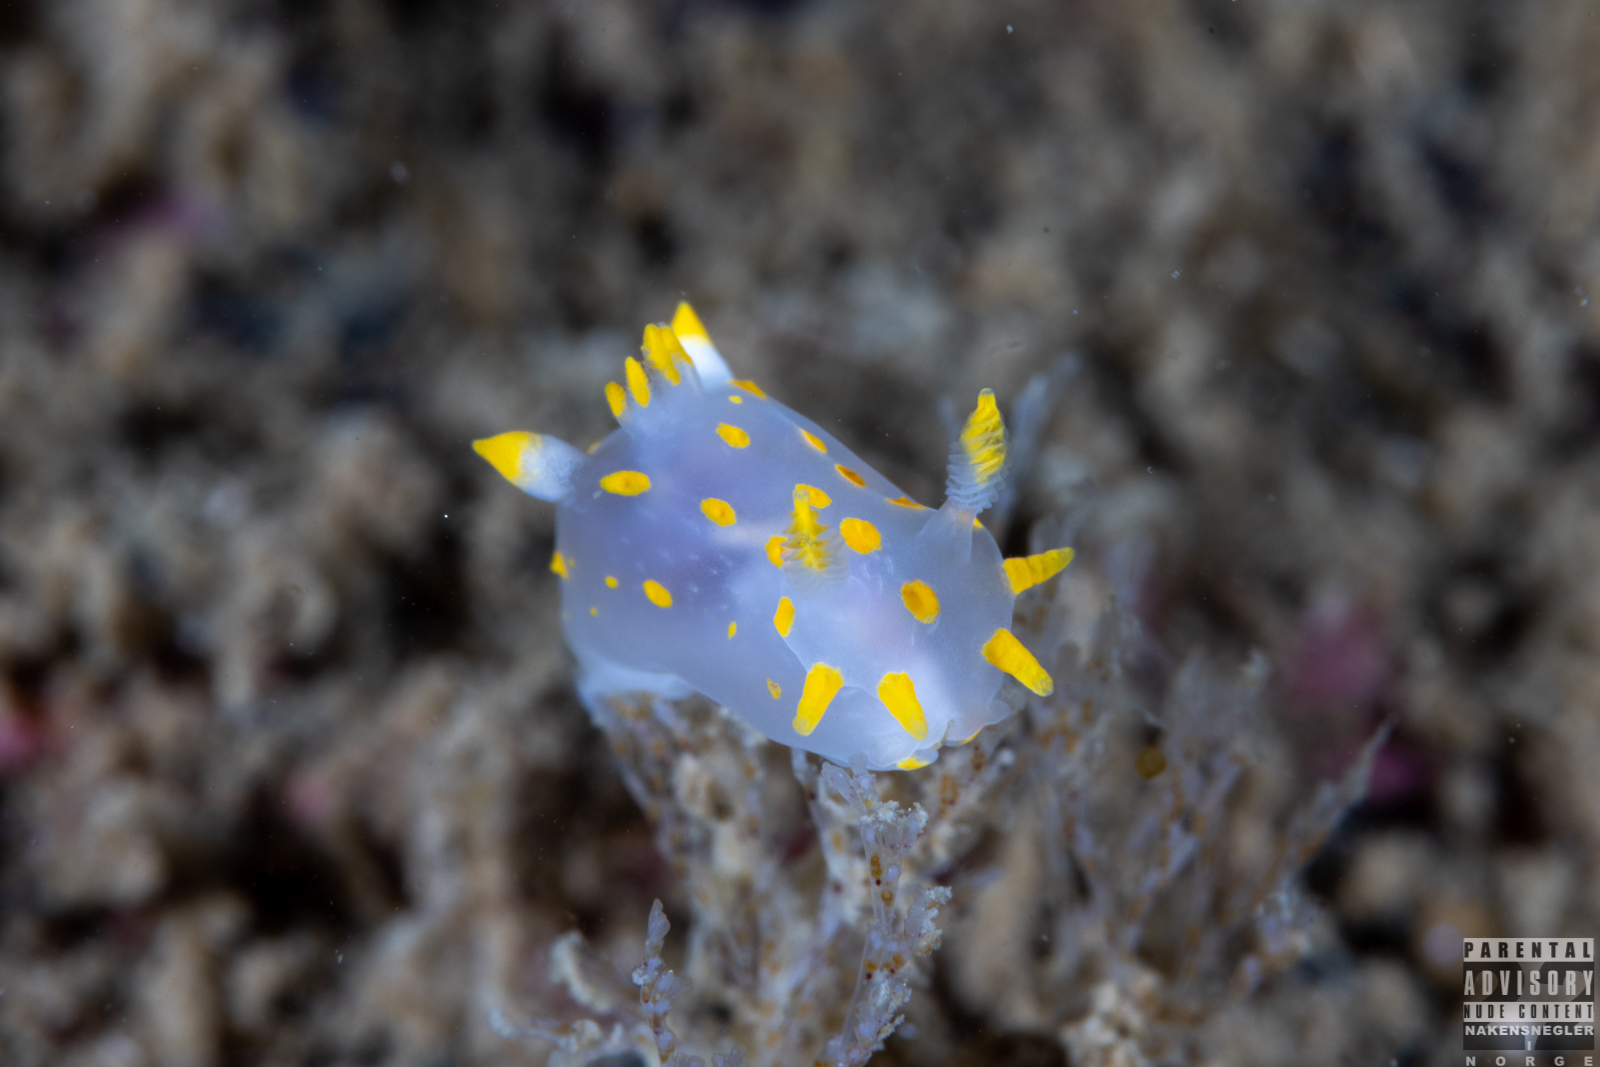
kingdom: Animalia
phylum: Mollusca
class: Gastropoda
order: Nudibranchia
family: Polyceridae
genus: Polycera
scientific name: Polycera quadrilineata
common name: Four-striped polycera
